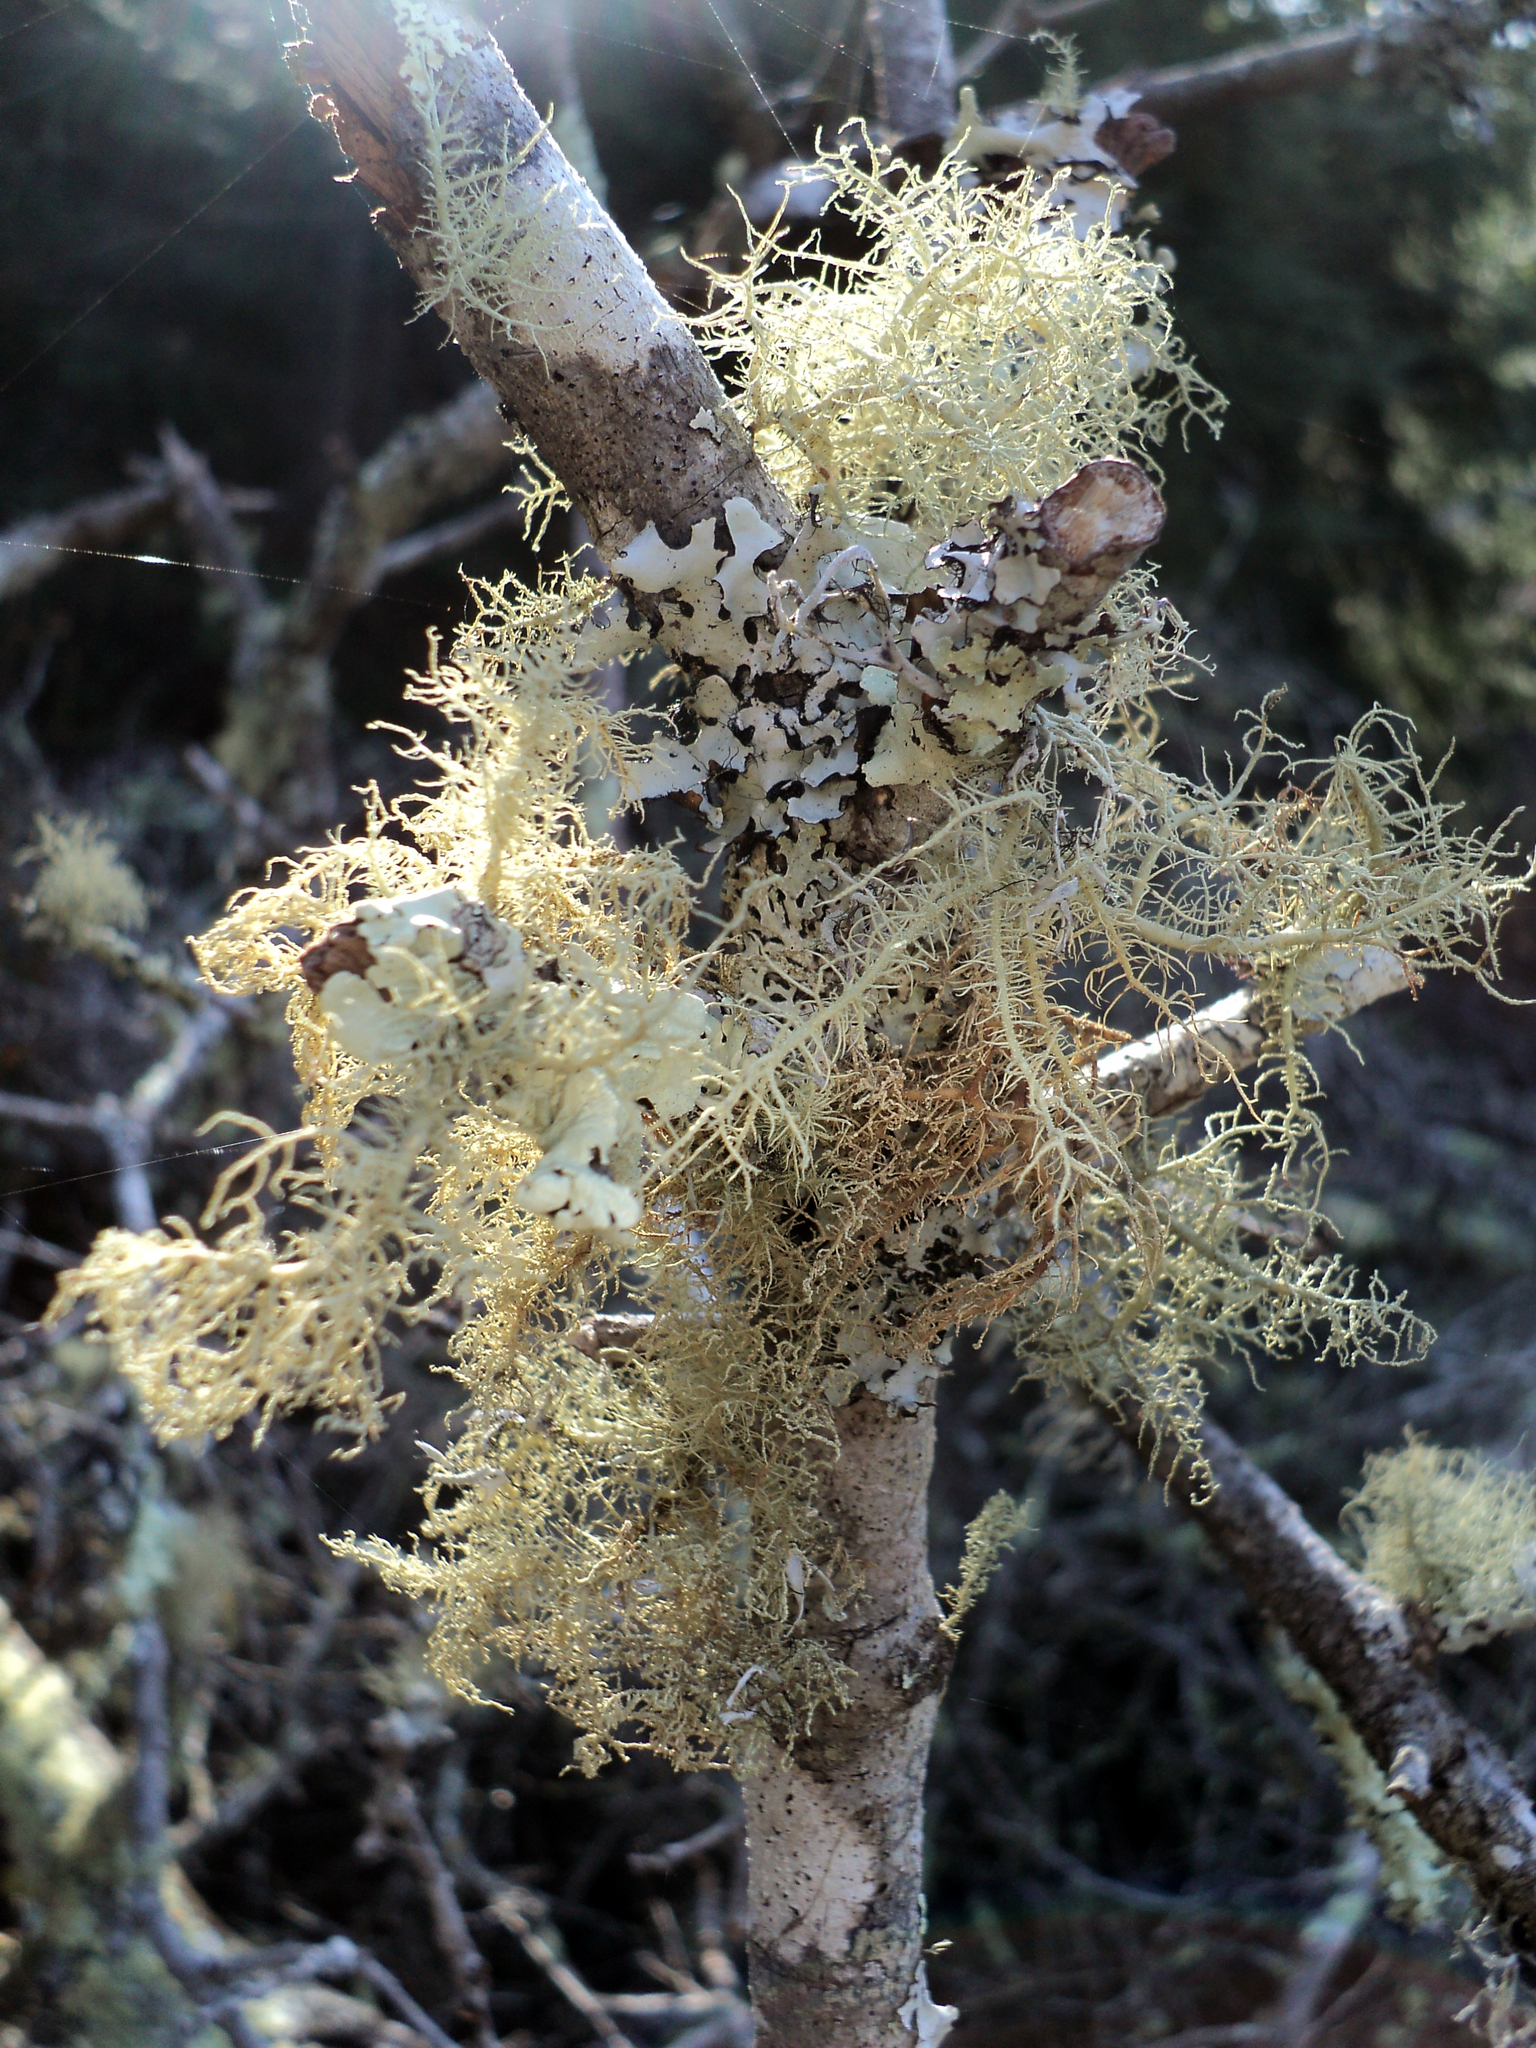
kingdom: Fungi
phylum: Ascomycota
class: Lecanoromycetes
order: Lecanorales
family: Parmeliaceae
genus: Usnea
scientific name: Usnea cornuta
